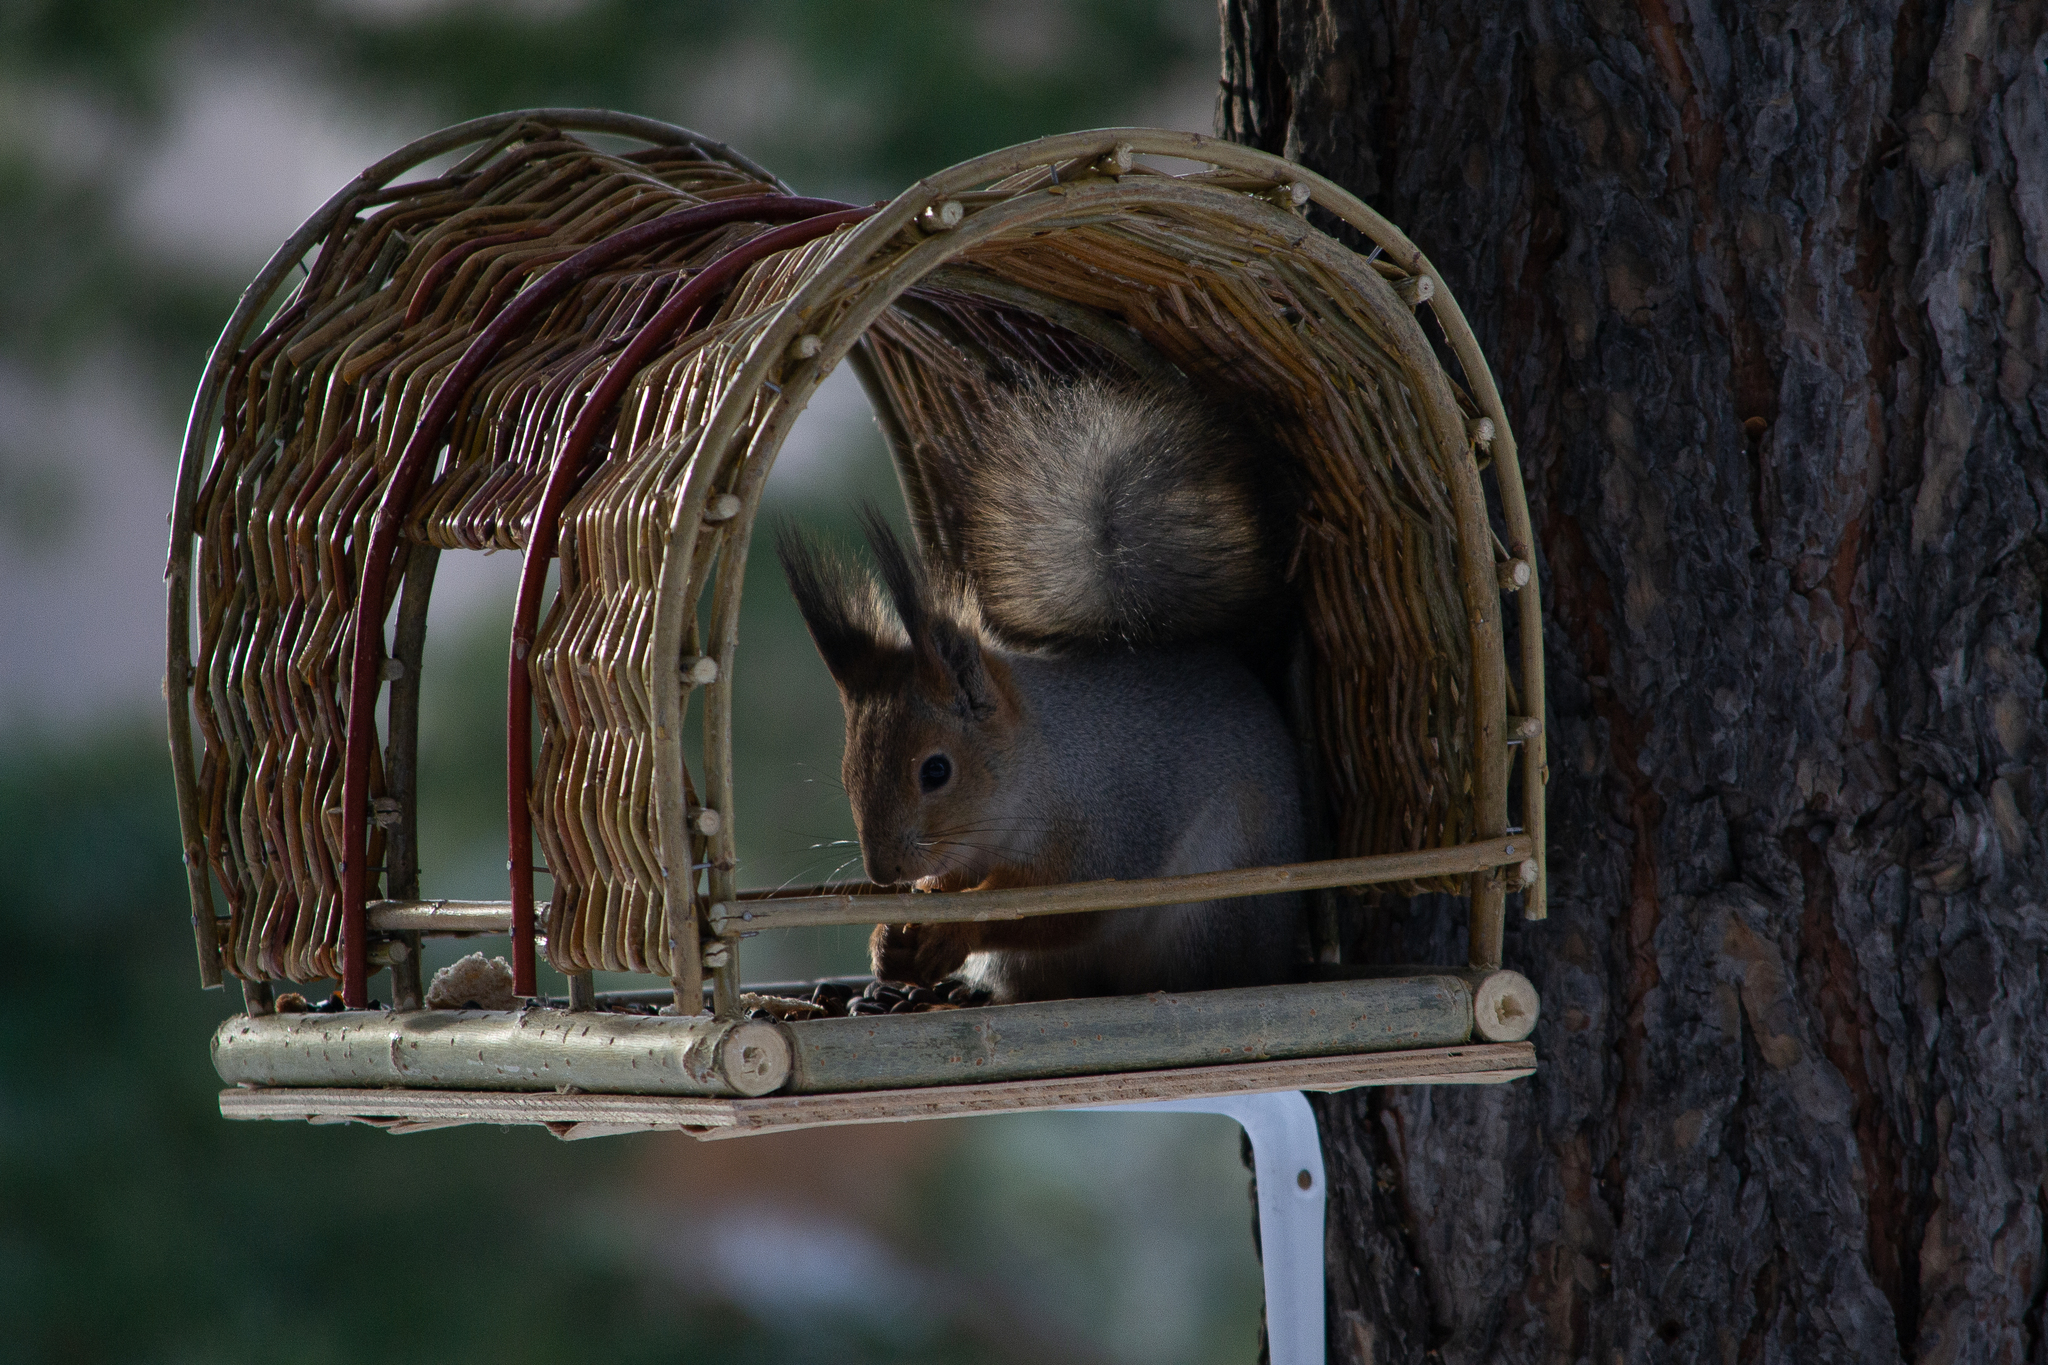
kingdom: Animalia
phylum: Chordata
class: Mammalia
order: Rodentia
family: Sciuridae
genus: Sciurus
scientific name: Sciurus vulgaris
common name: Eurasian red squirrel
